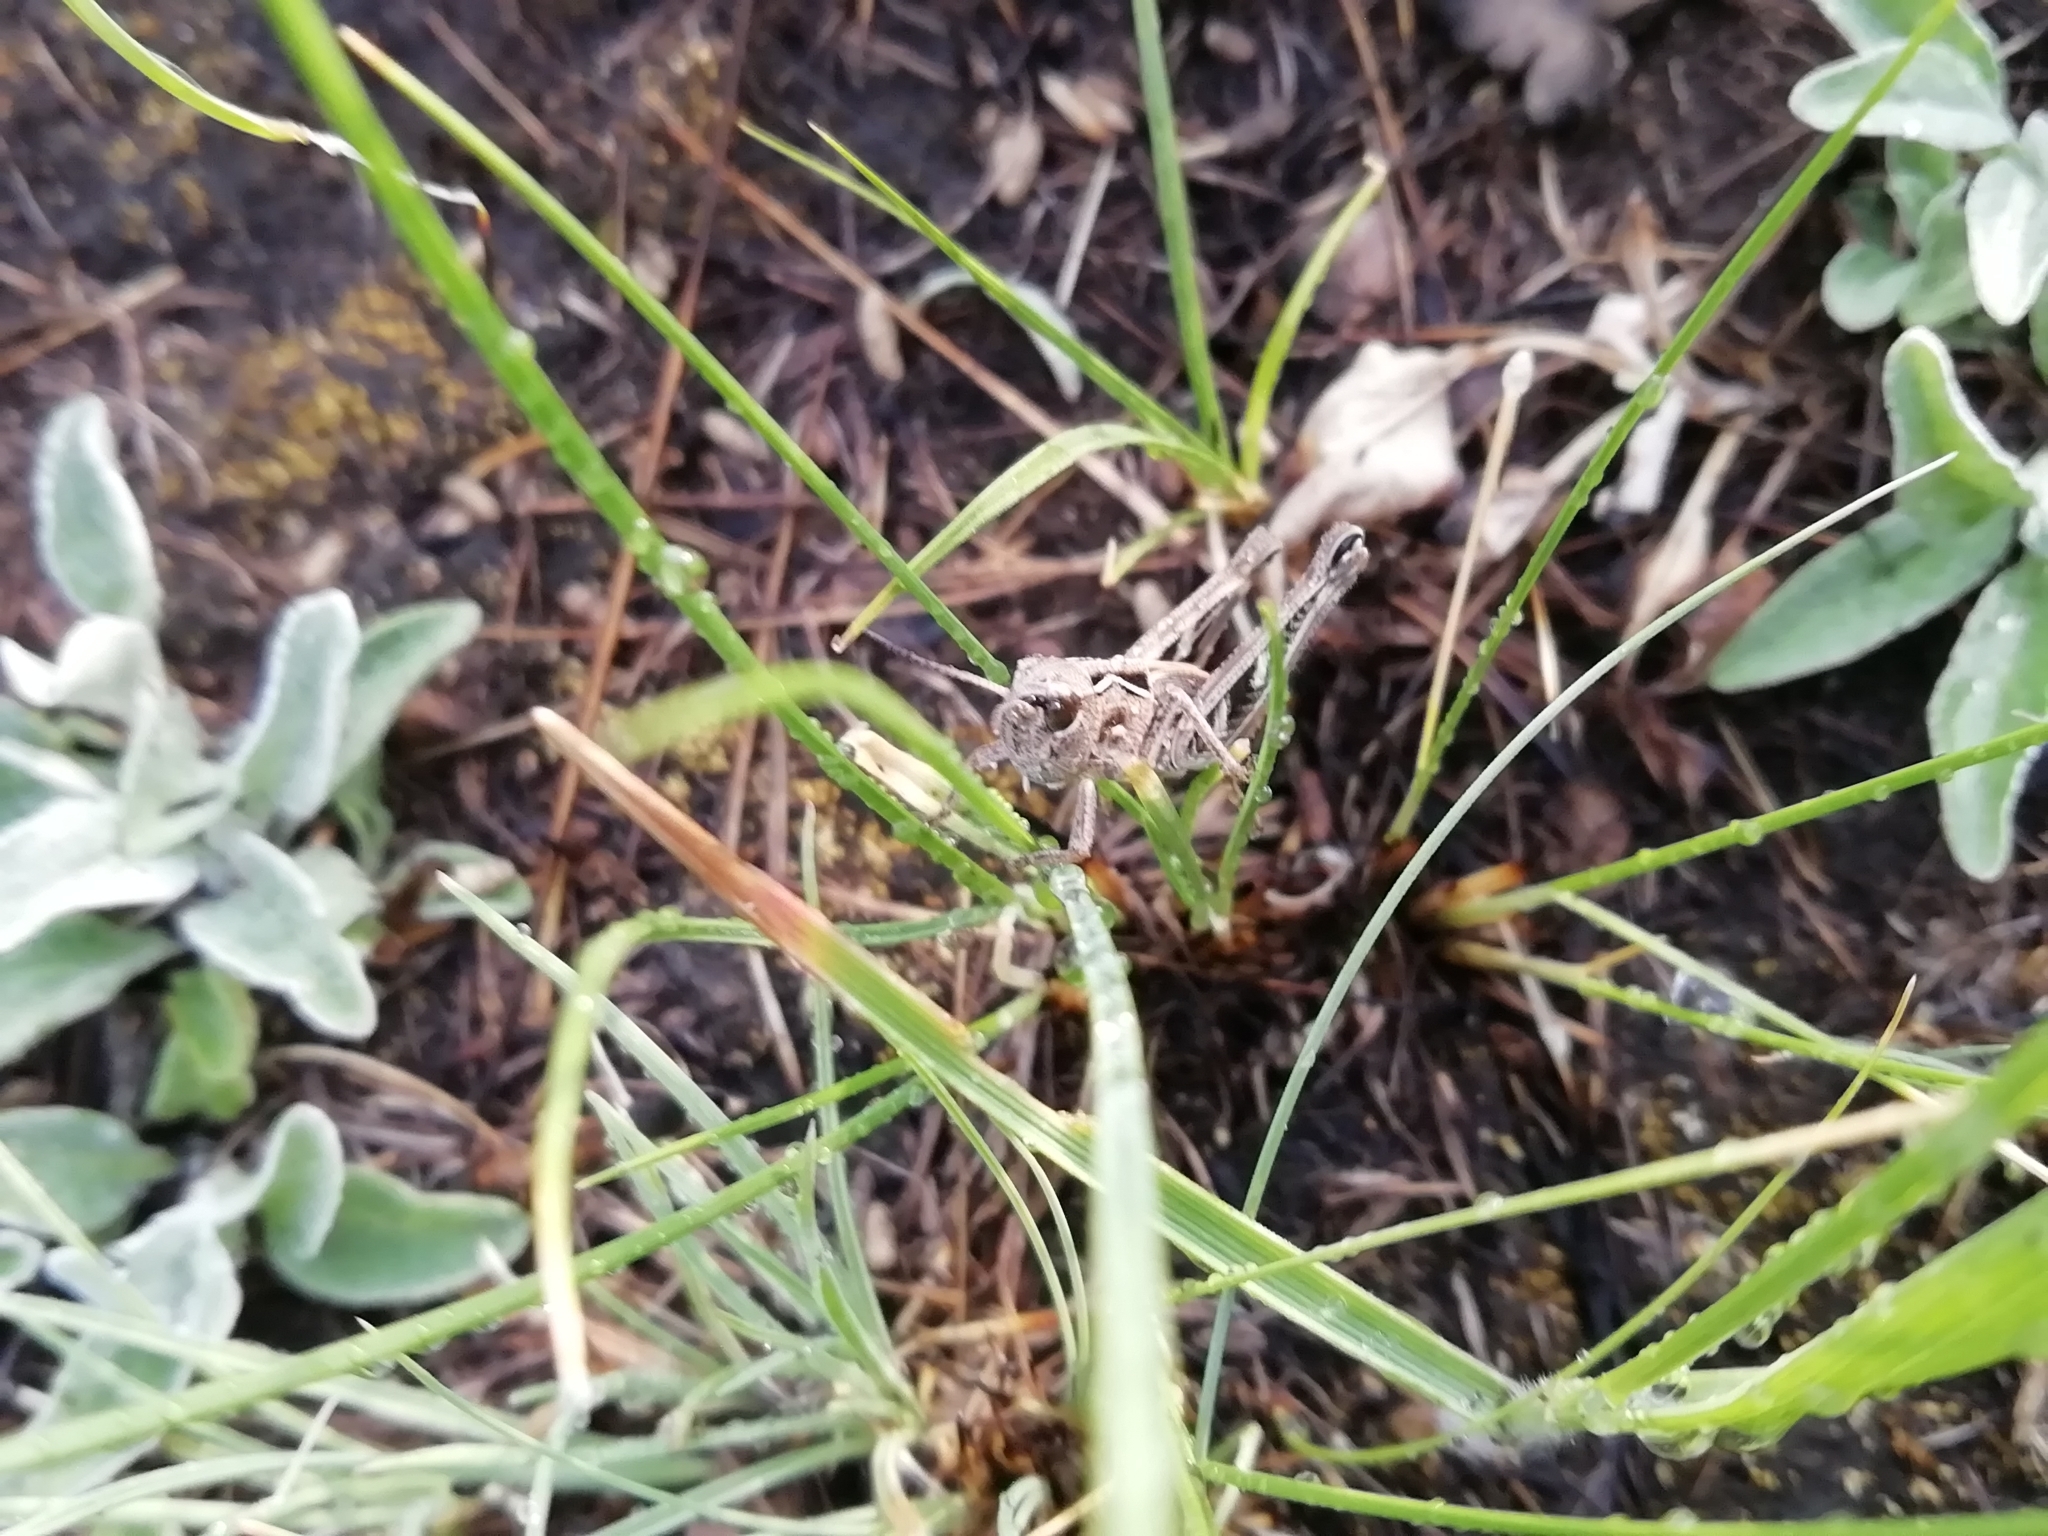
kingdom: Animalia
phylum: Arthropoda
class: Insecta
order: Orthoptera
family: Acrididae
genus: Arcyptera
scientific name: Arcyptera microptera
